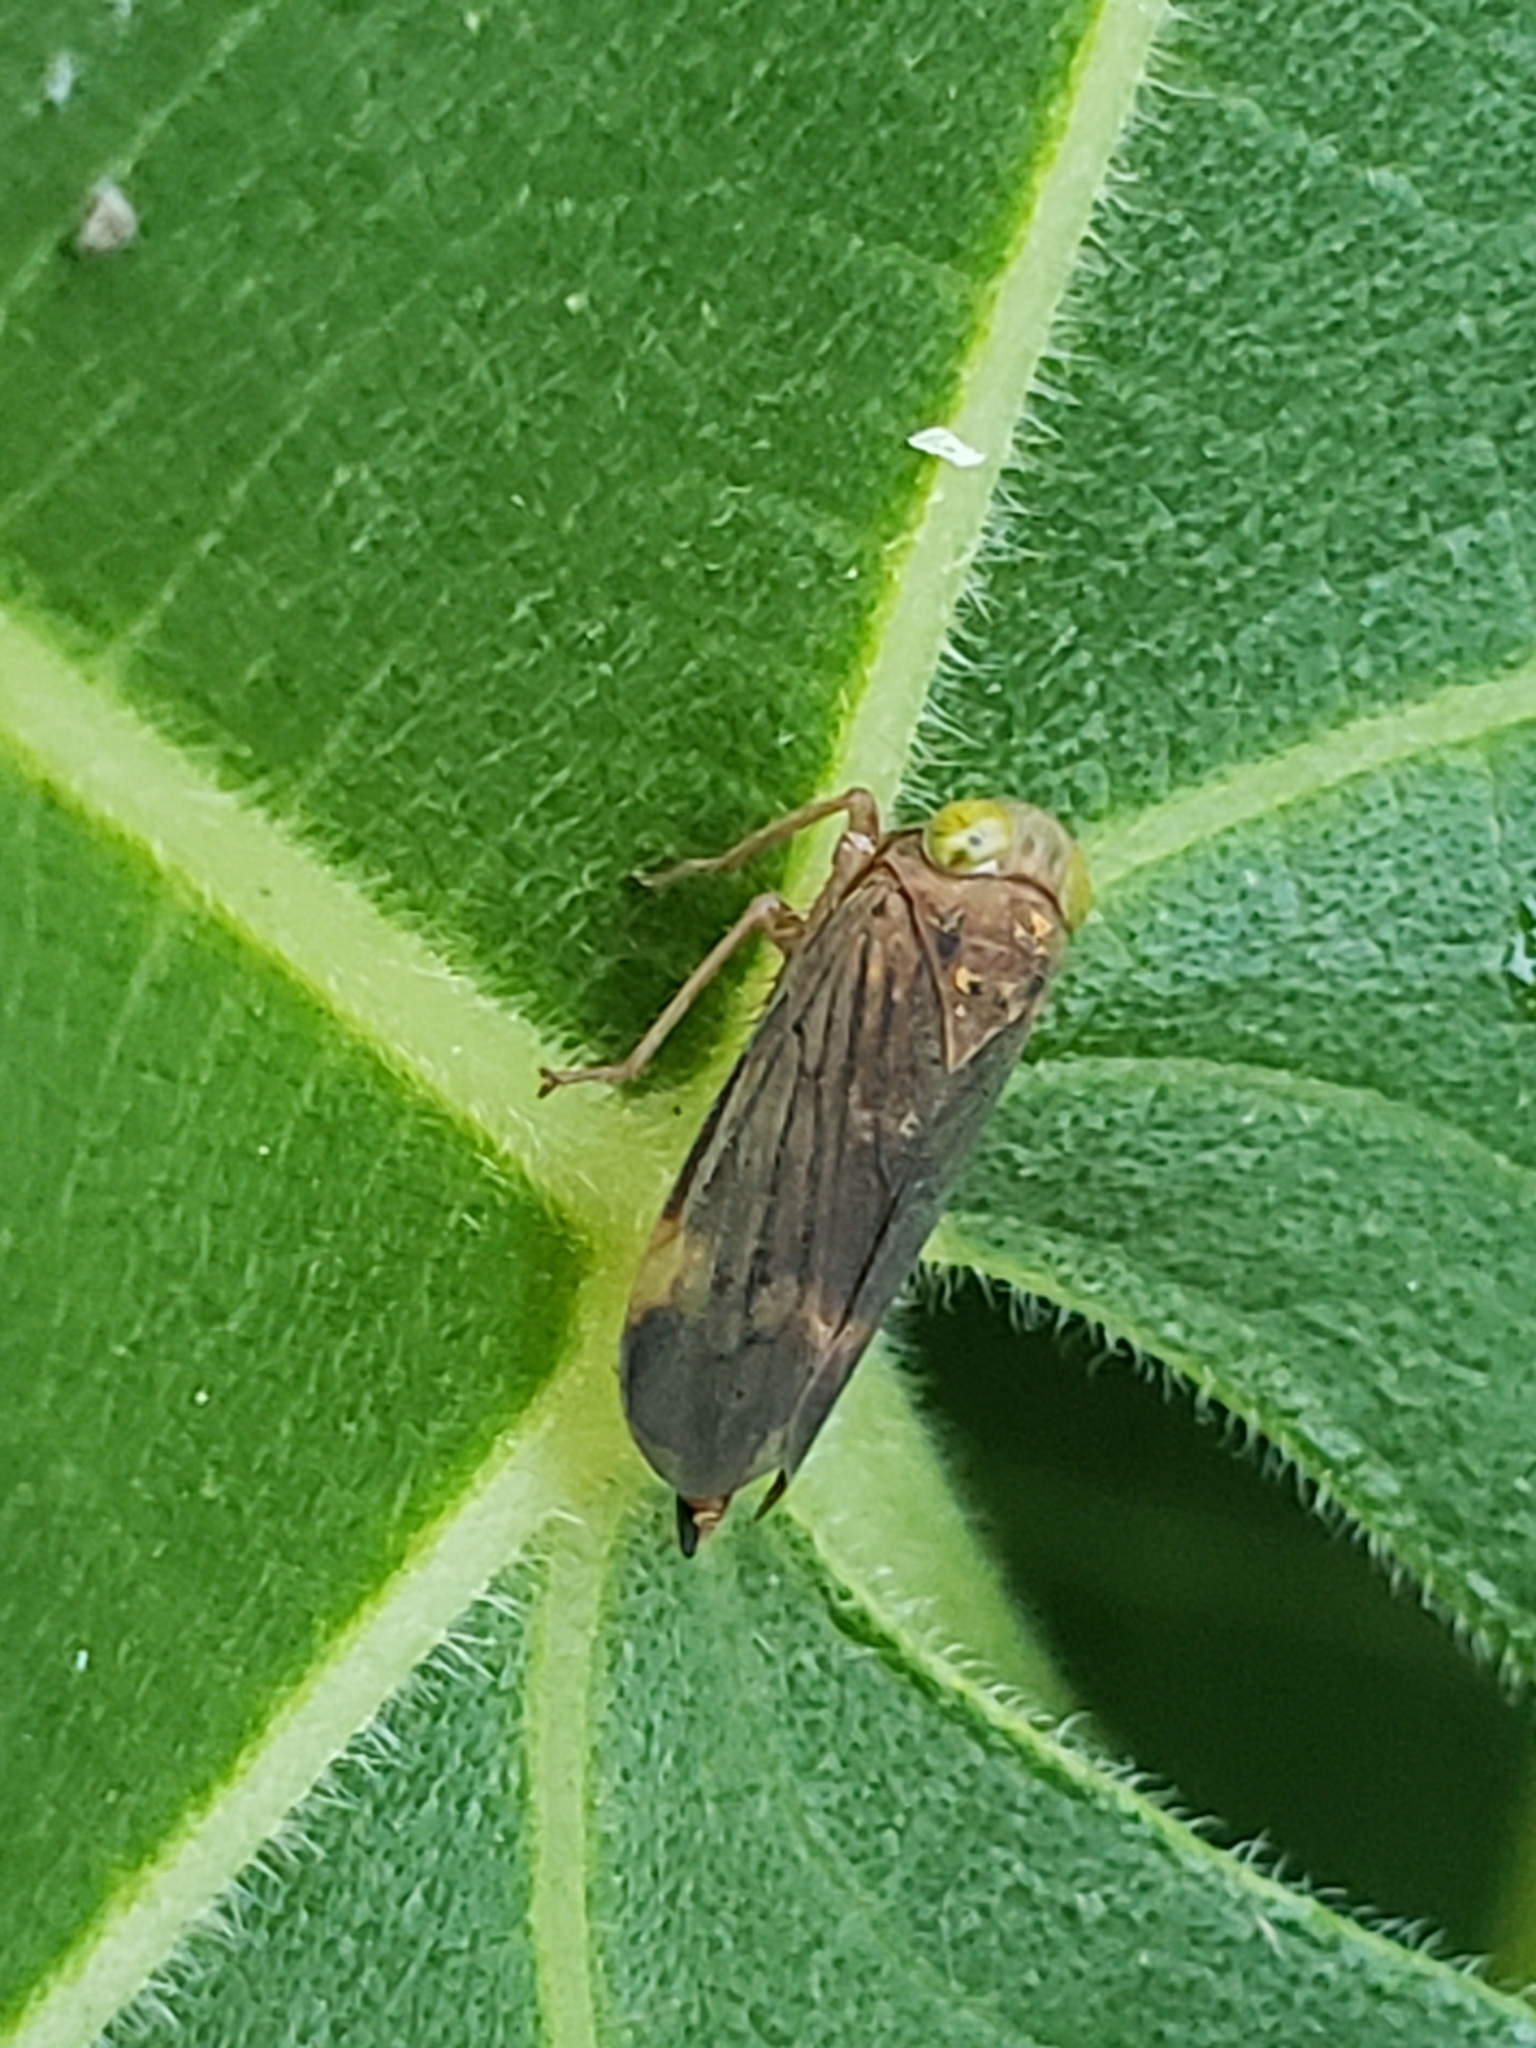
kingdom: Animalia
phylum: Arthropoda
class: Insecta
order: Hemiptera
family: Cicadellidae
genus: Jikradia
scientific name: Jikradia olitoria
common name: Coppery leafhopper
